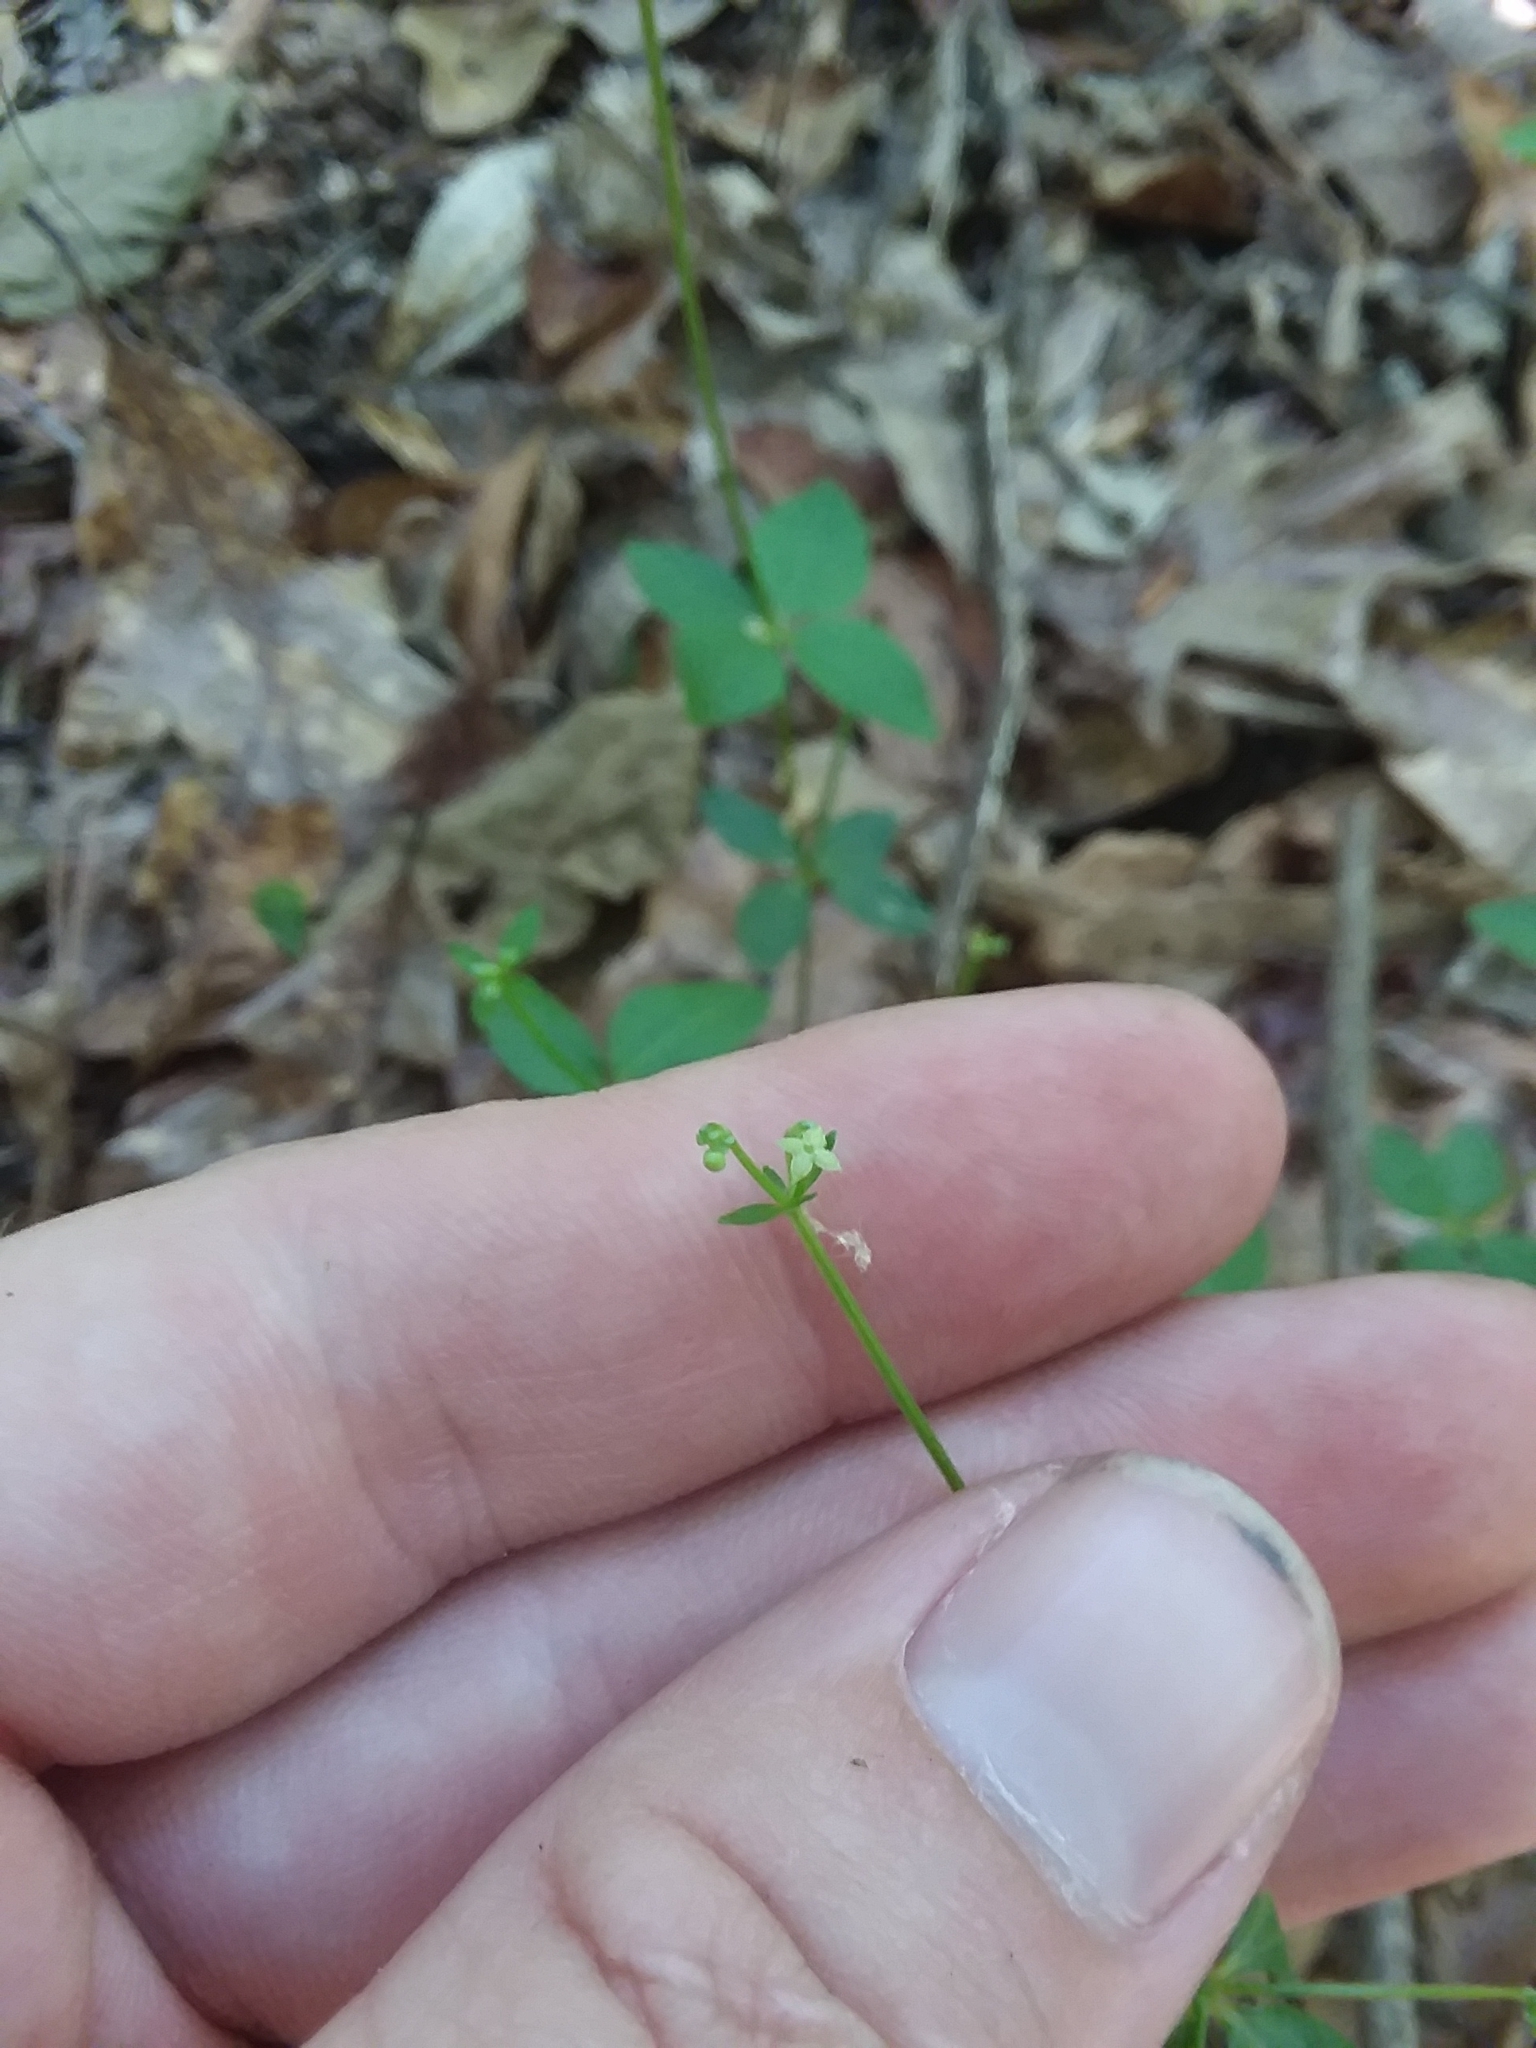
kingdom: Plantae
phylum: Tracheophyta
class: Magnoliopsida
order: Gentianales
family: Rubiaceae
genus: Galium
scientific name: Galium circaezans
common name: Forest bedstraw
